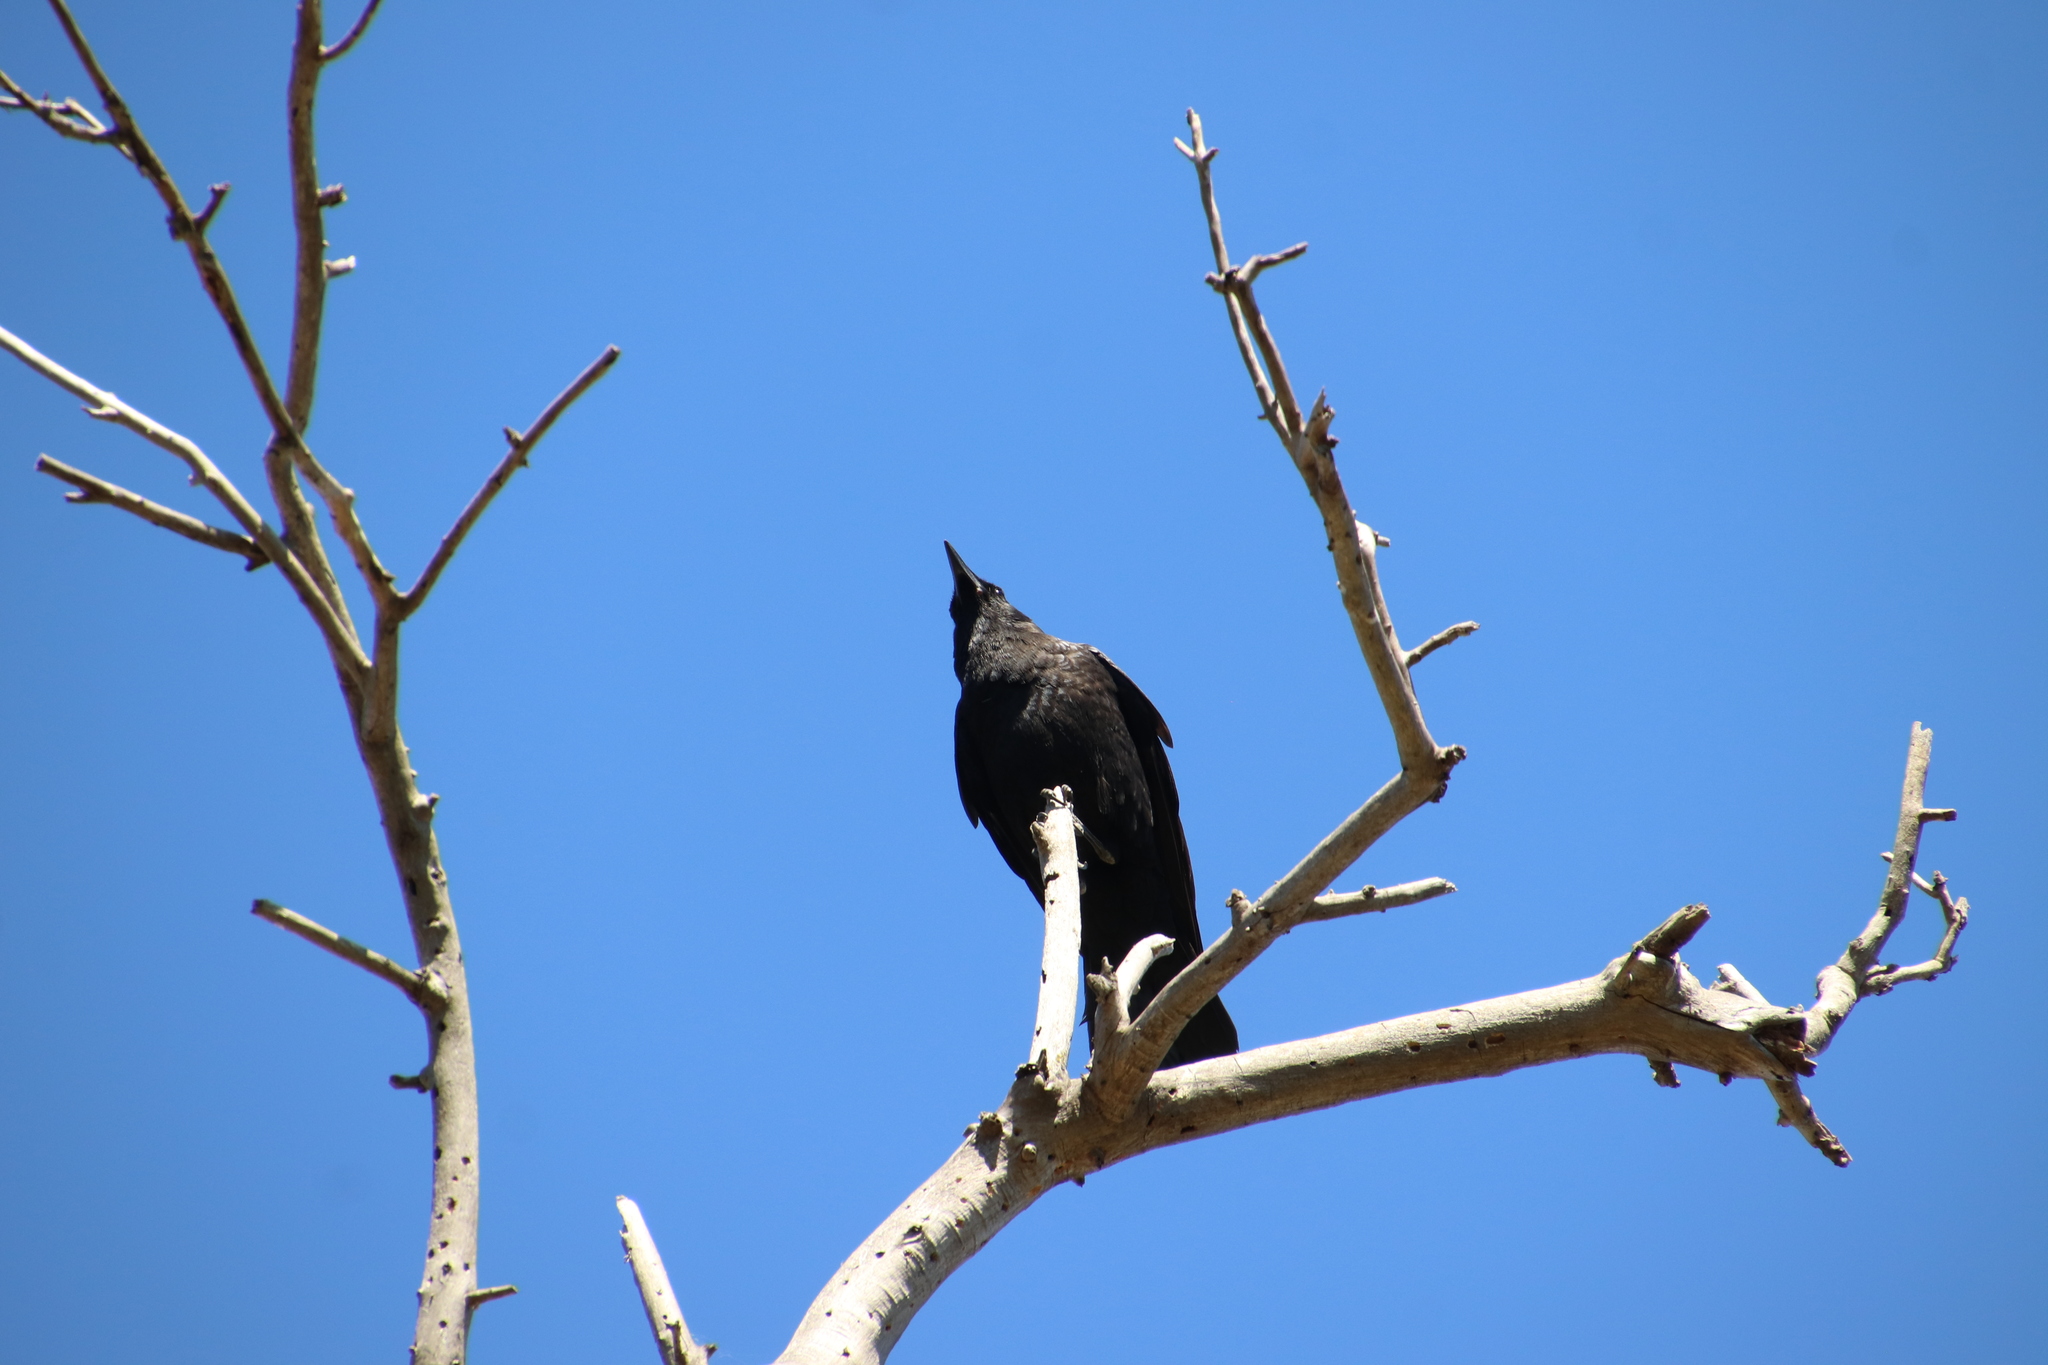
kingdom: Animalia
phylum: Chordata
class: Aves
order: Passeriformes
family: Corvidae
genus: Corvus
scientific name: Corvus brachyrhynchos
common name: American crow
